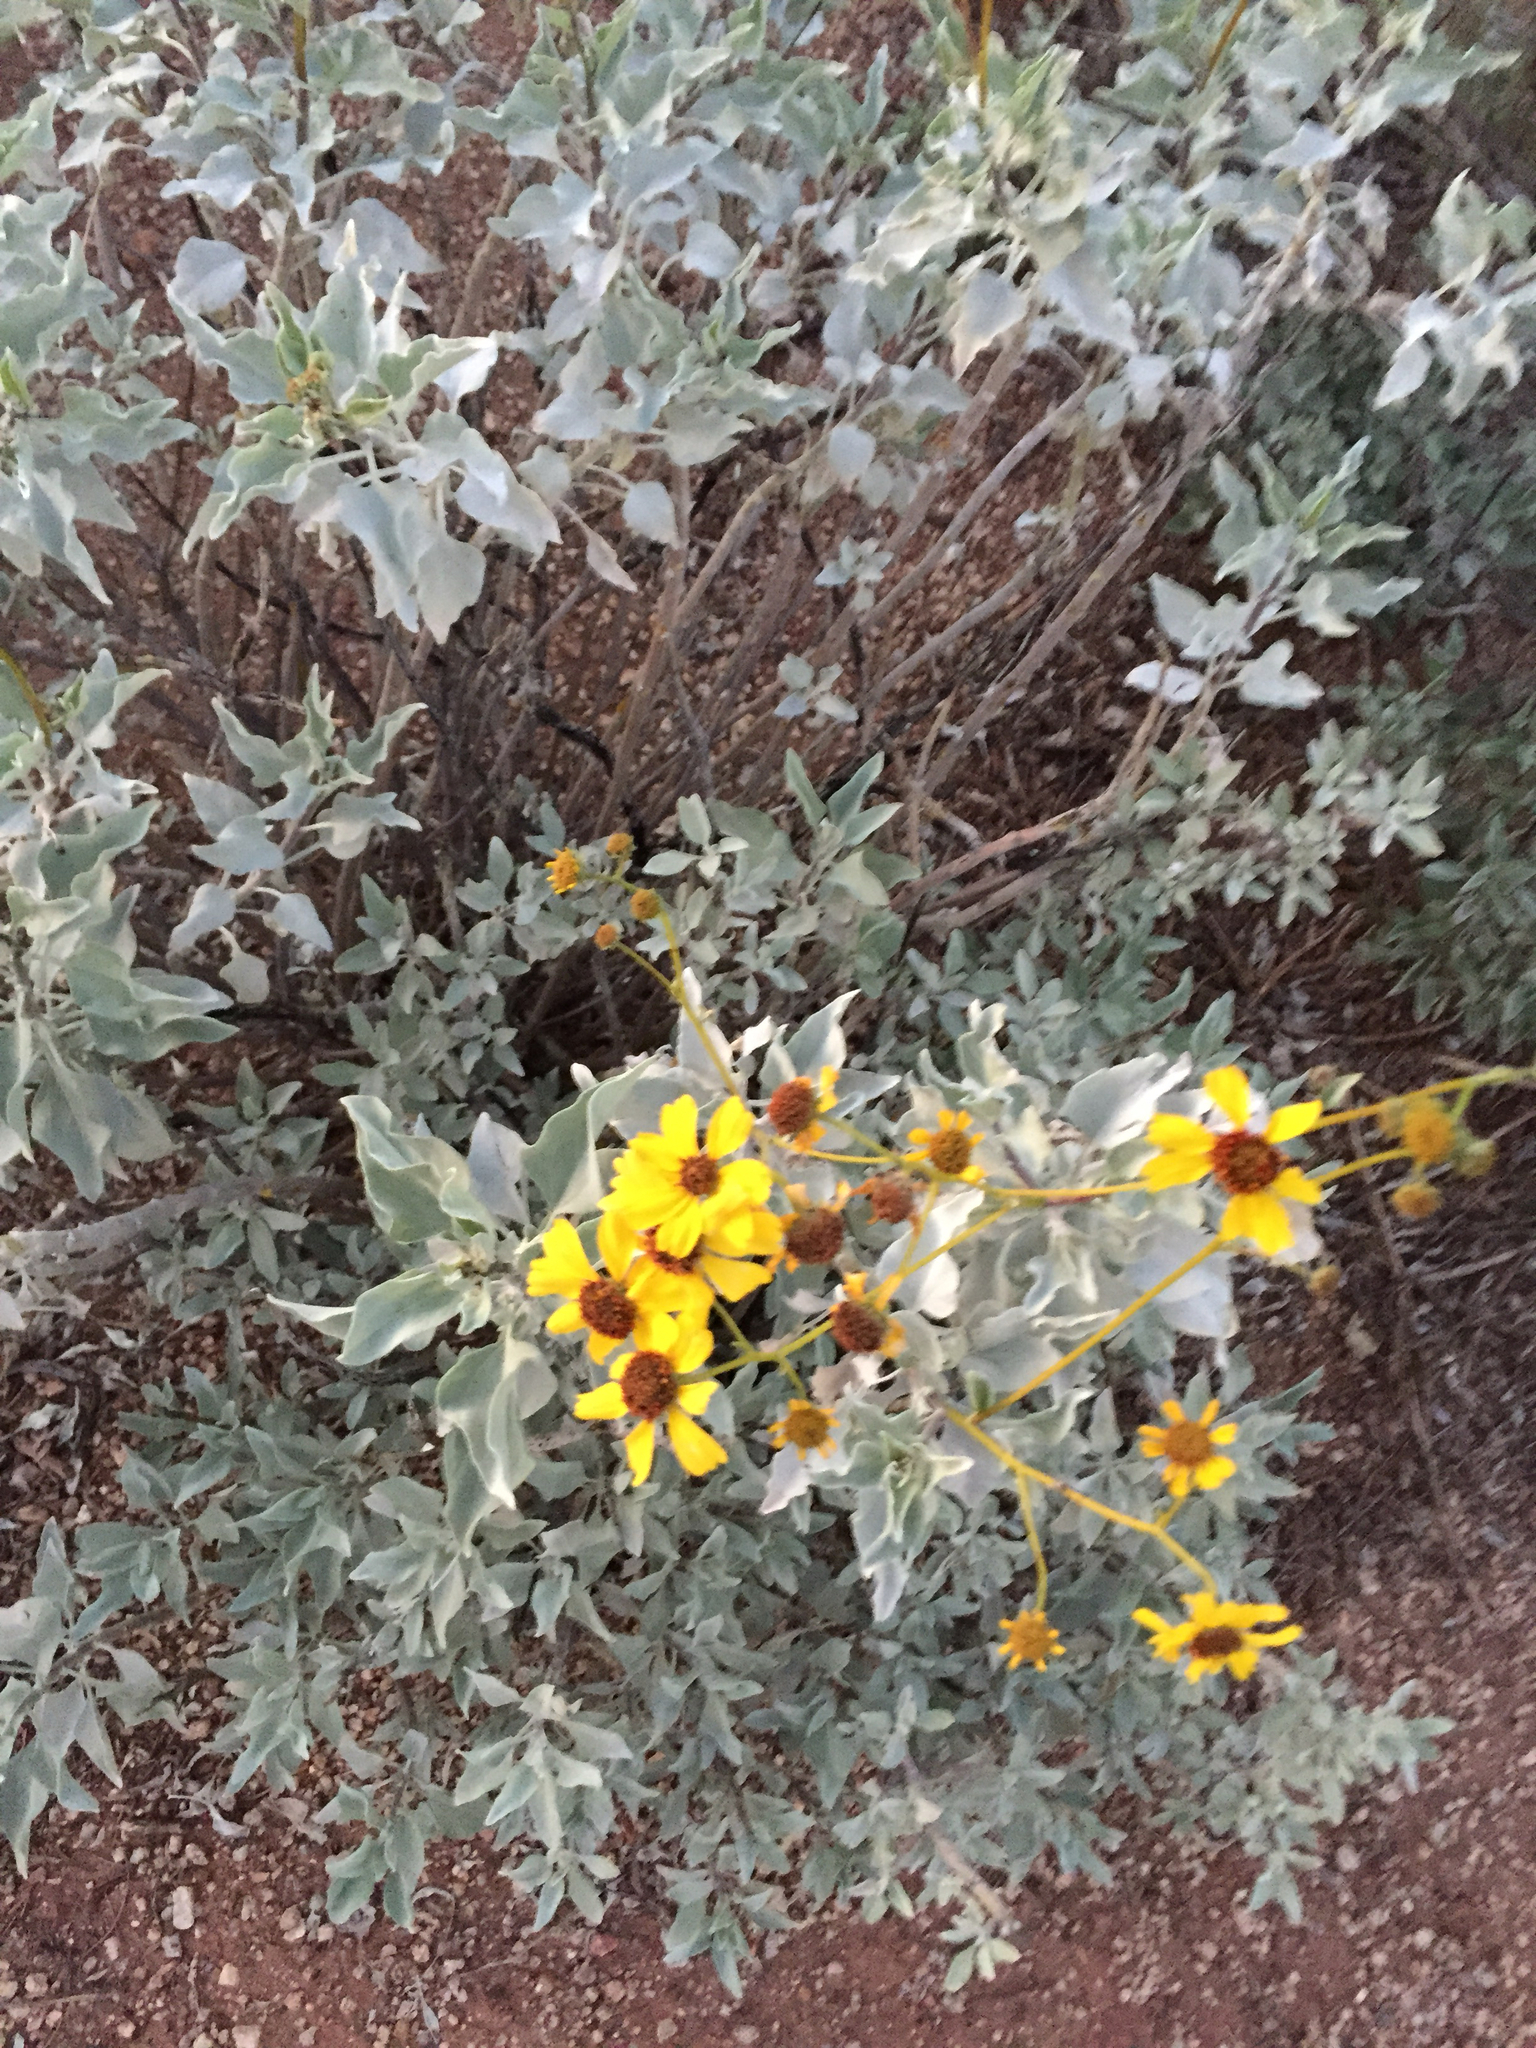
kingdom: Plantae
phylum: Tracheophyta
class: Magnoliopsida
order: Asterales
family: Asteraceae
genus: Encelia
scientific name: Encelia farinosa
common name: Brittlebush
